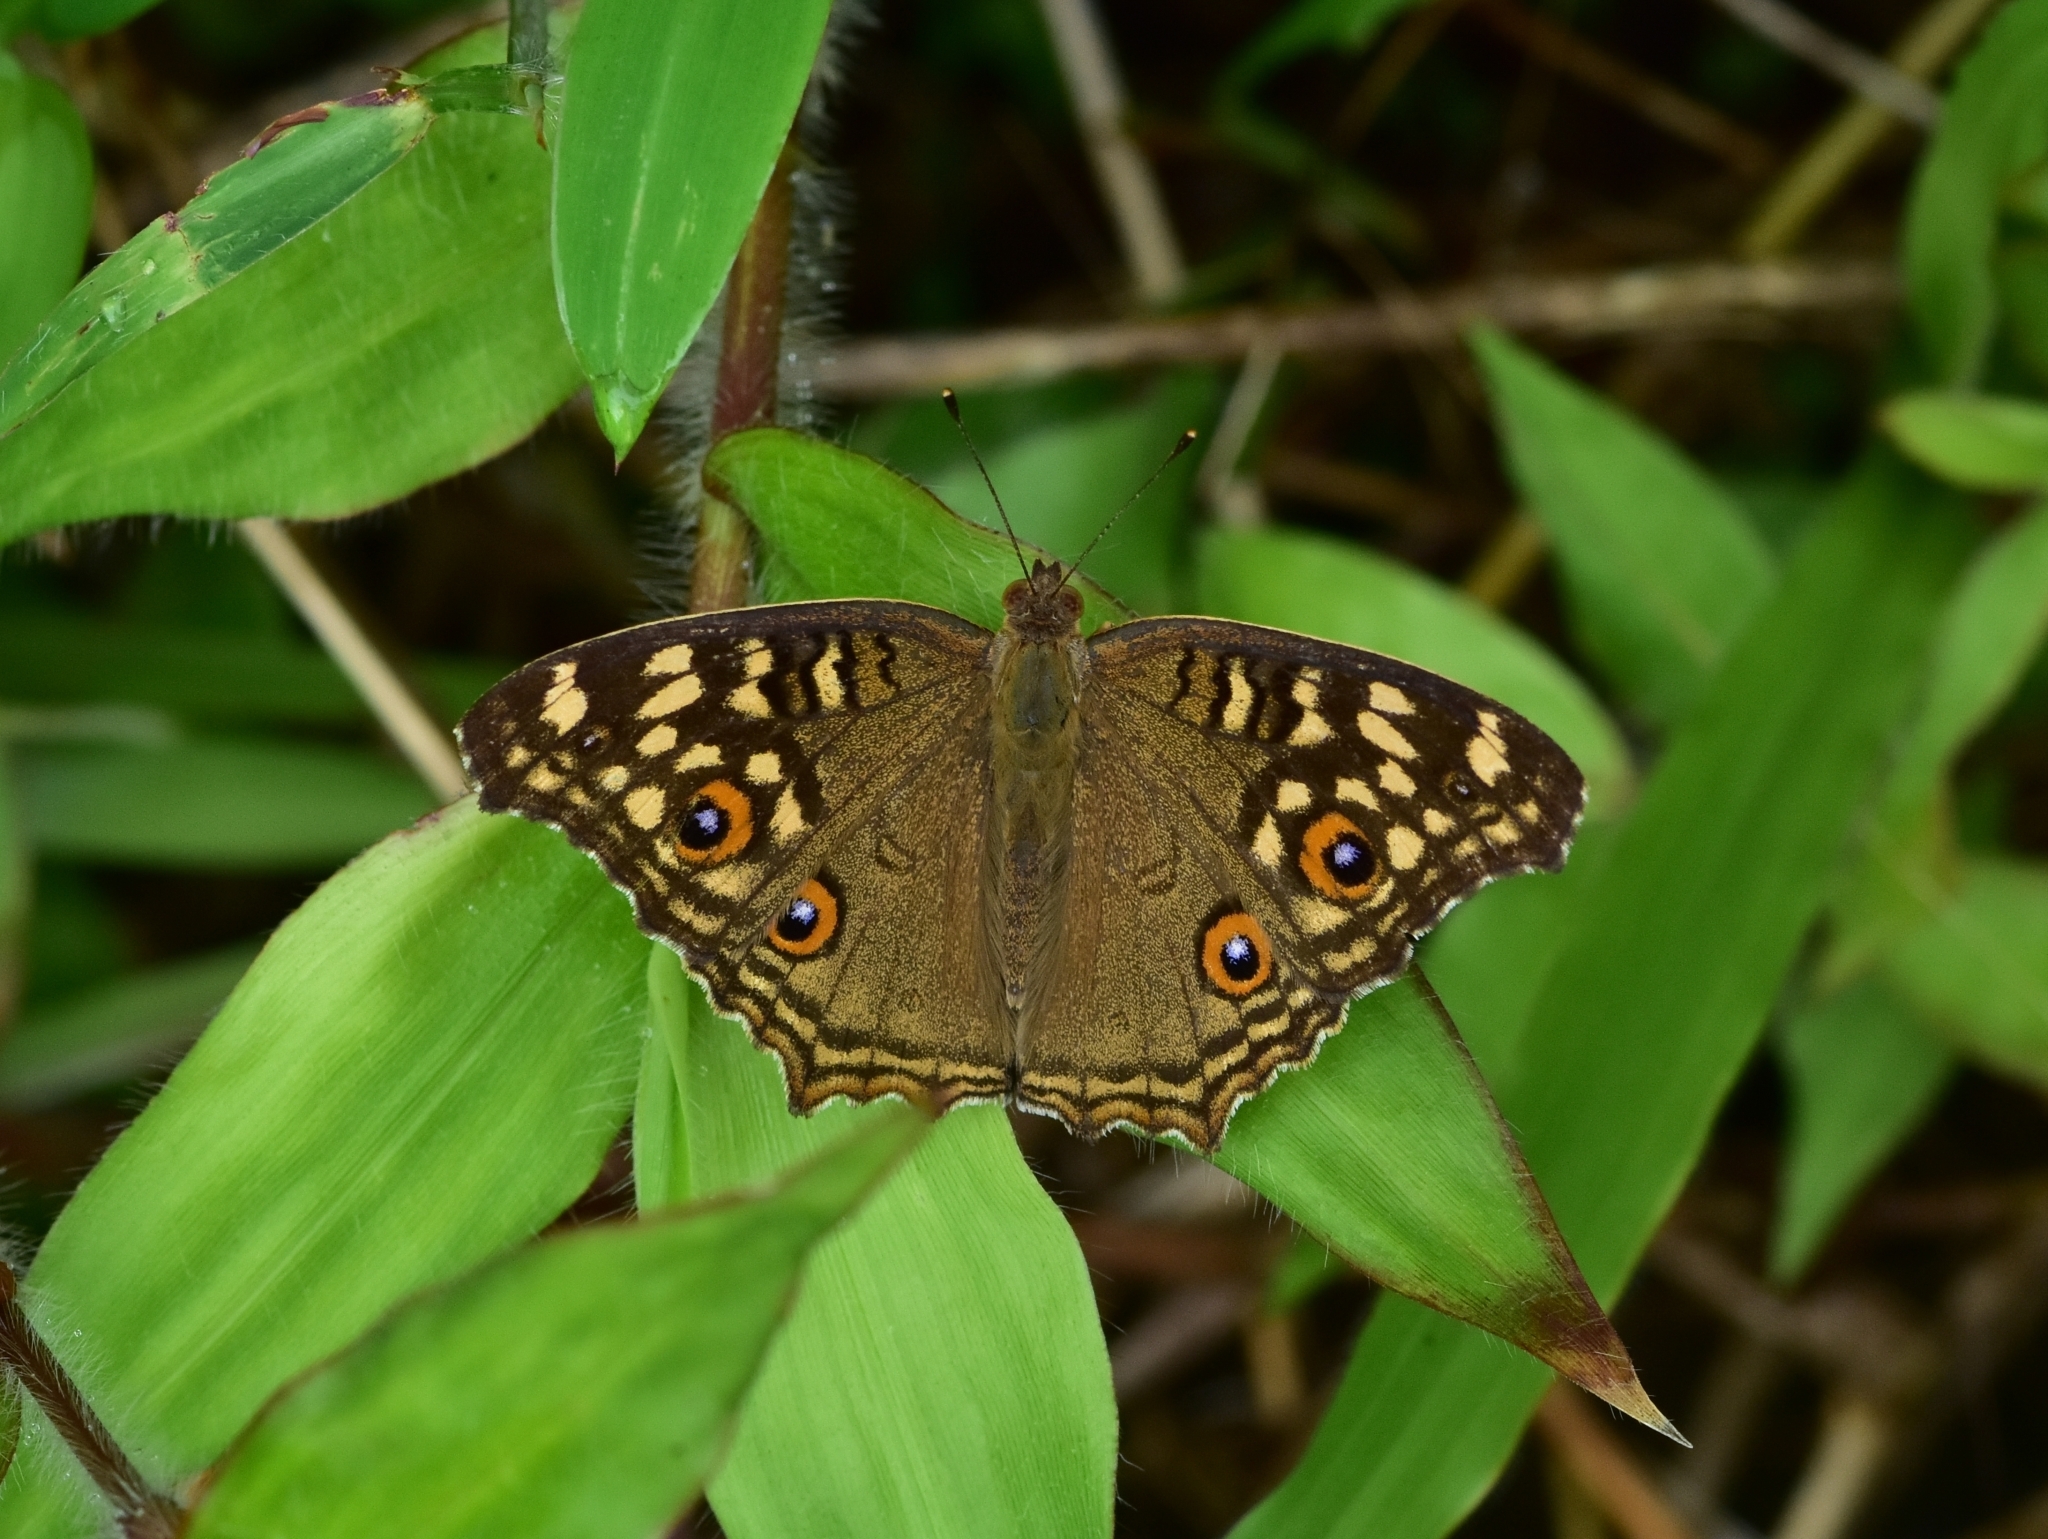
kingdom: Animalia
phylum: Arthropoda
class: Insecta
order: Lepidoptera
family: Nymphalidae
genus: Junonia
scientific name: Junonia lemonias
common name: Lemon pansy
